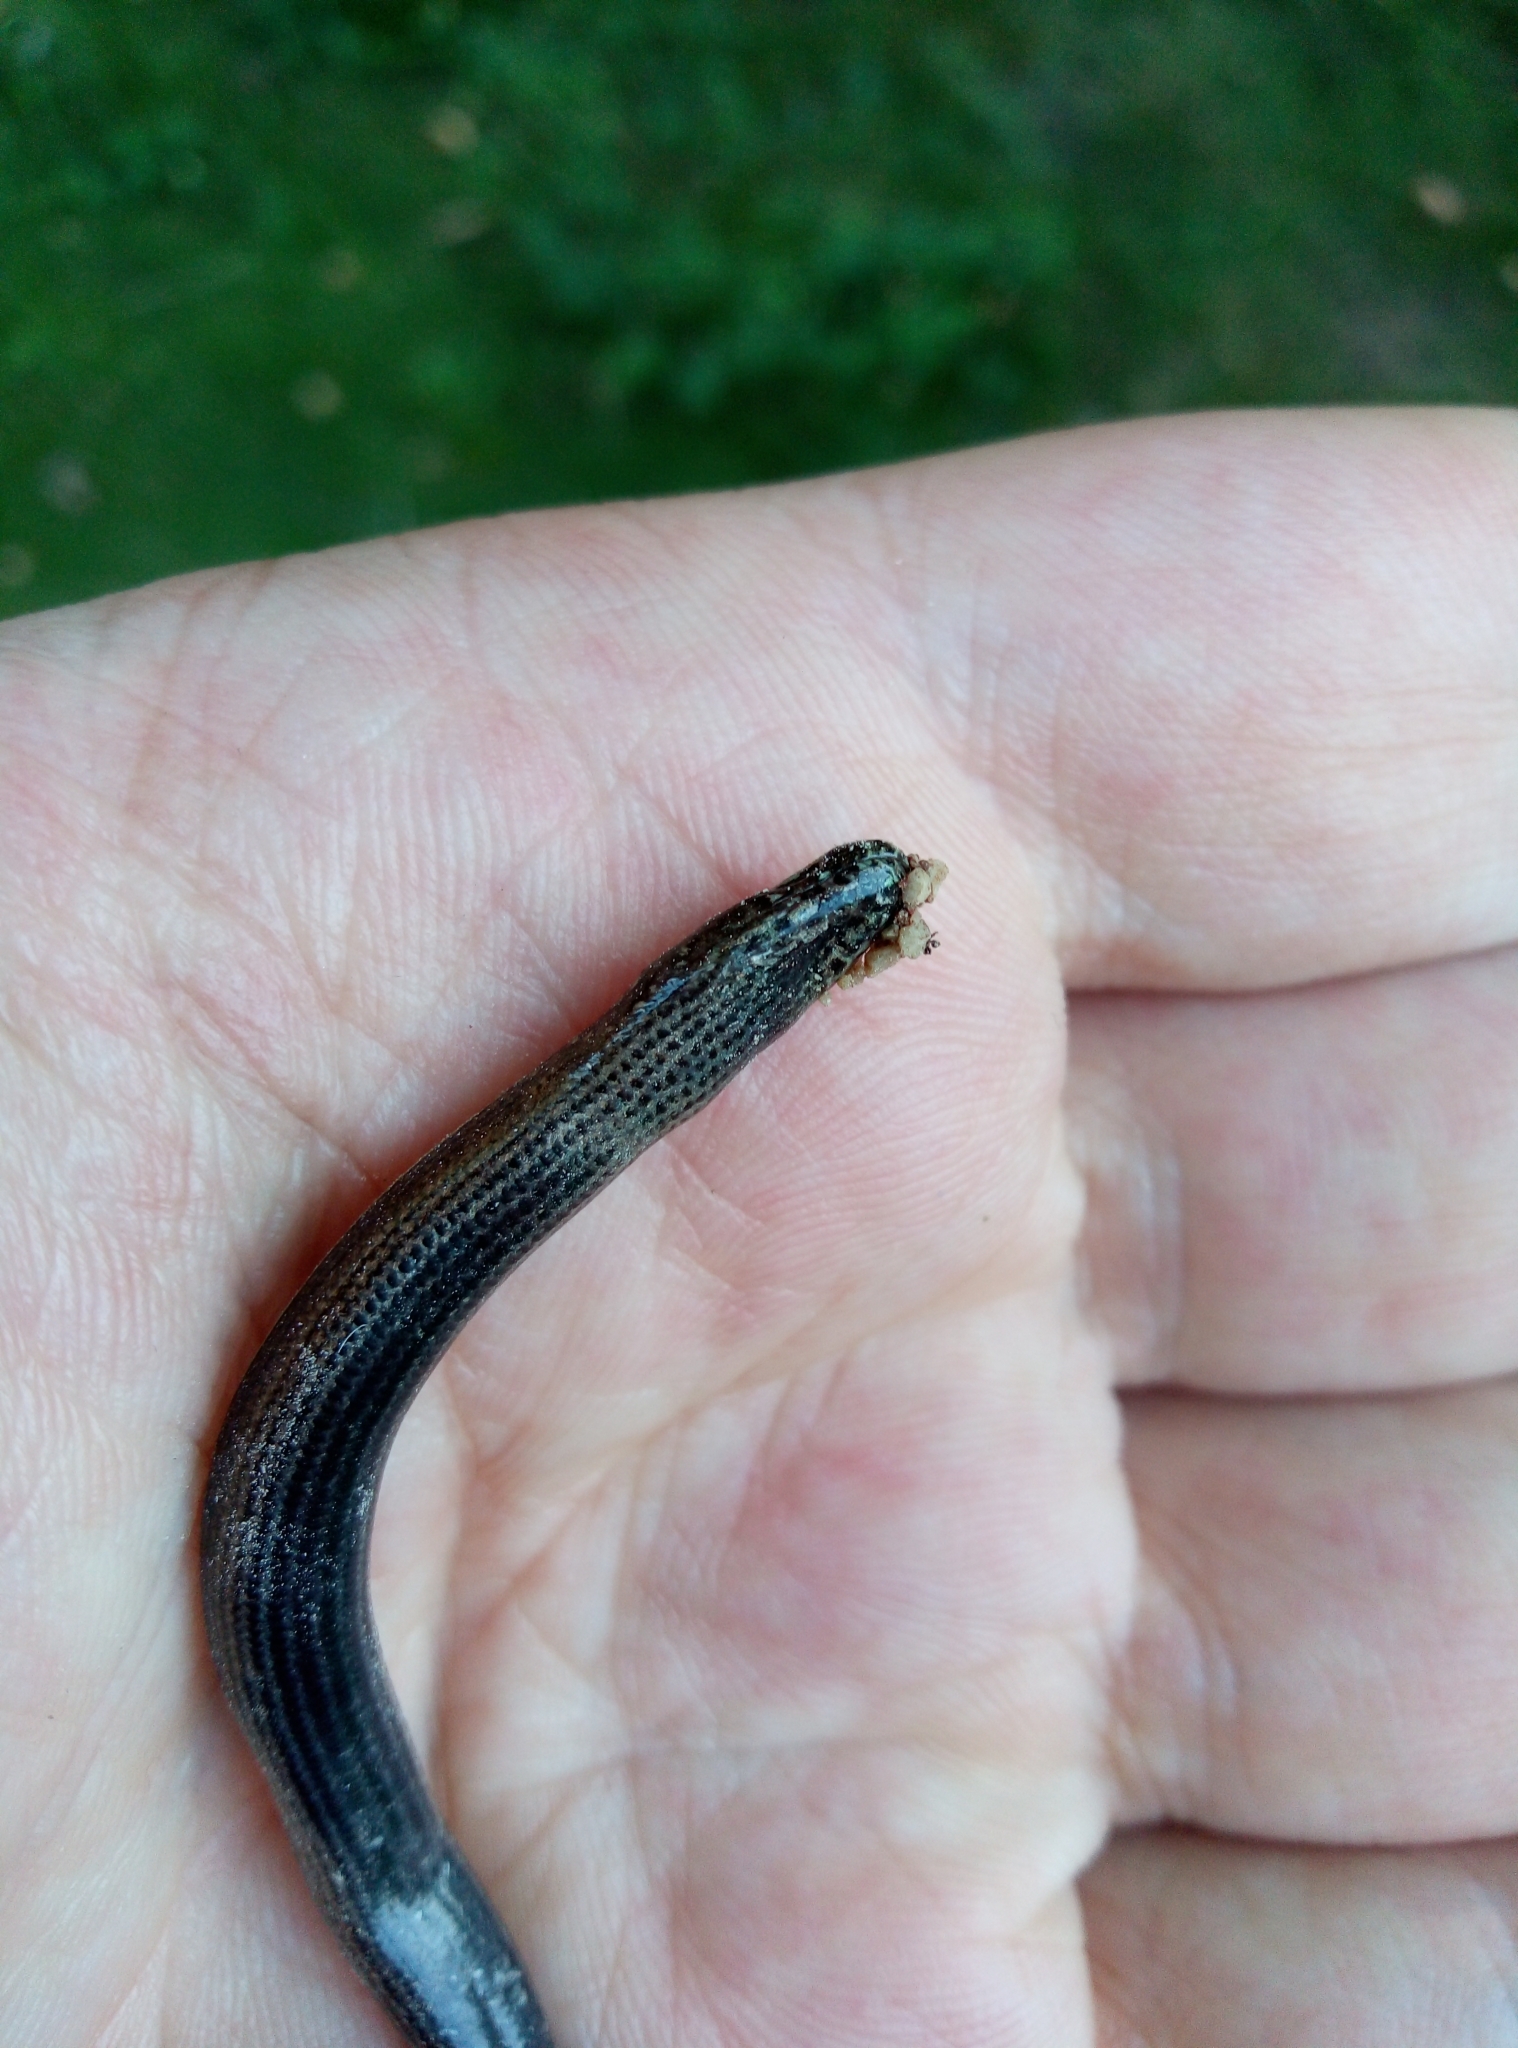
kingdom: Animalia
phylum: Chordata
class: Squamata
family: Anguidae
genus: Anguis
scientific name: Anguis fragilis
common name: Slow worm
